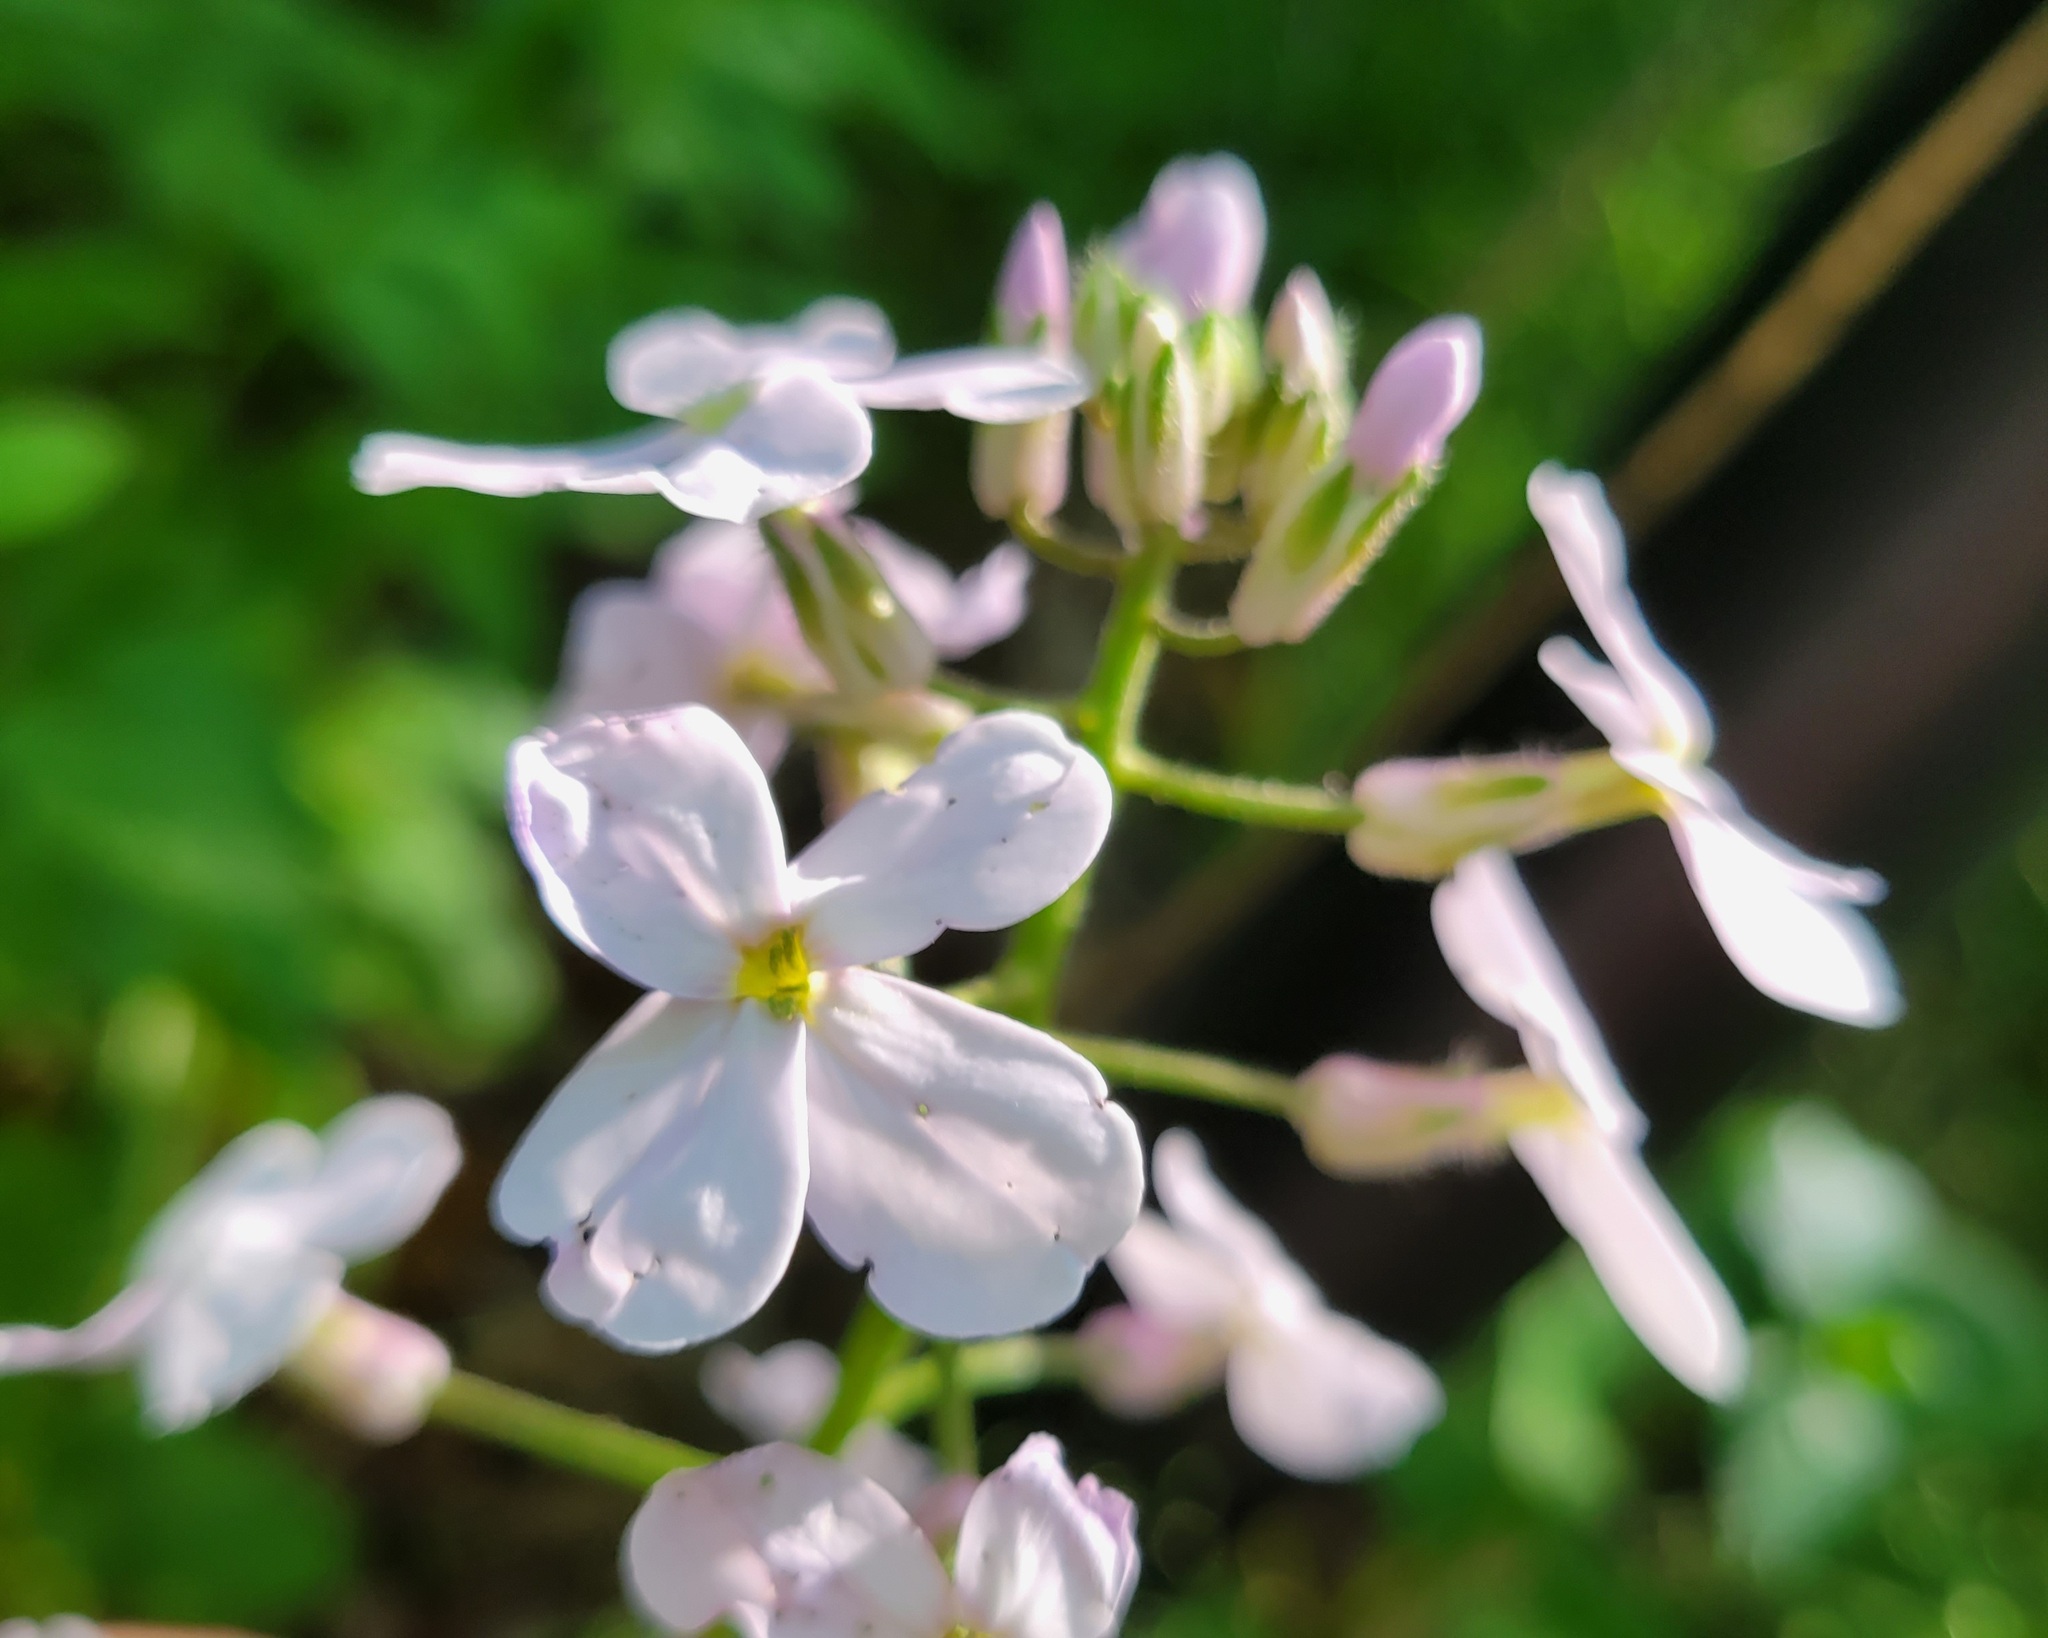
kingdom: Plantae
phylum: Tracheophyta
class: Magnoliopsida
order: Brassicales
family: Brassicaceae
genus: Hesperis
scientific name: Hesperis matronalis
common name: Dame's-violet
